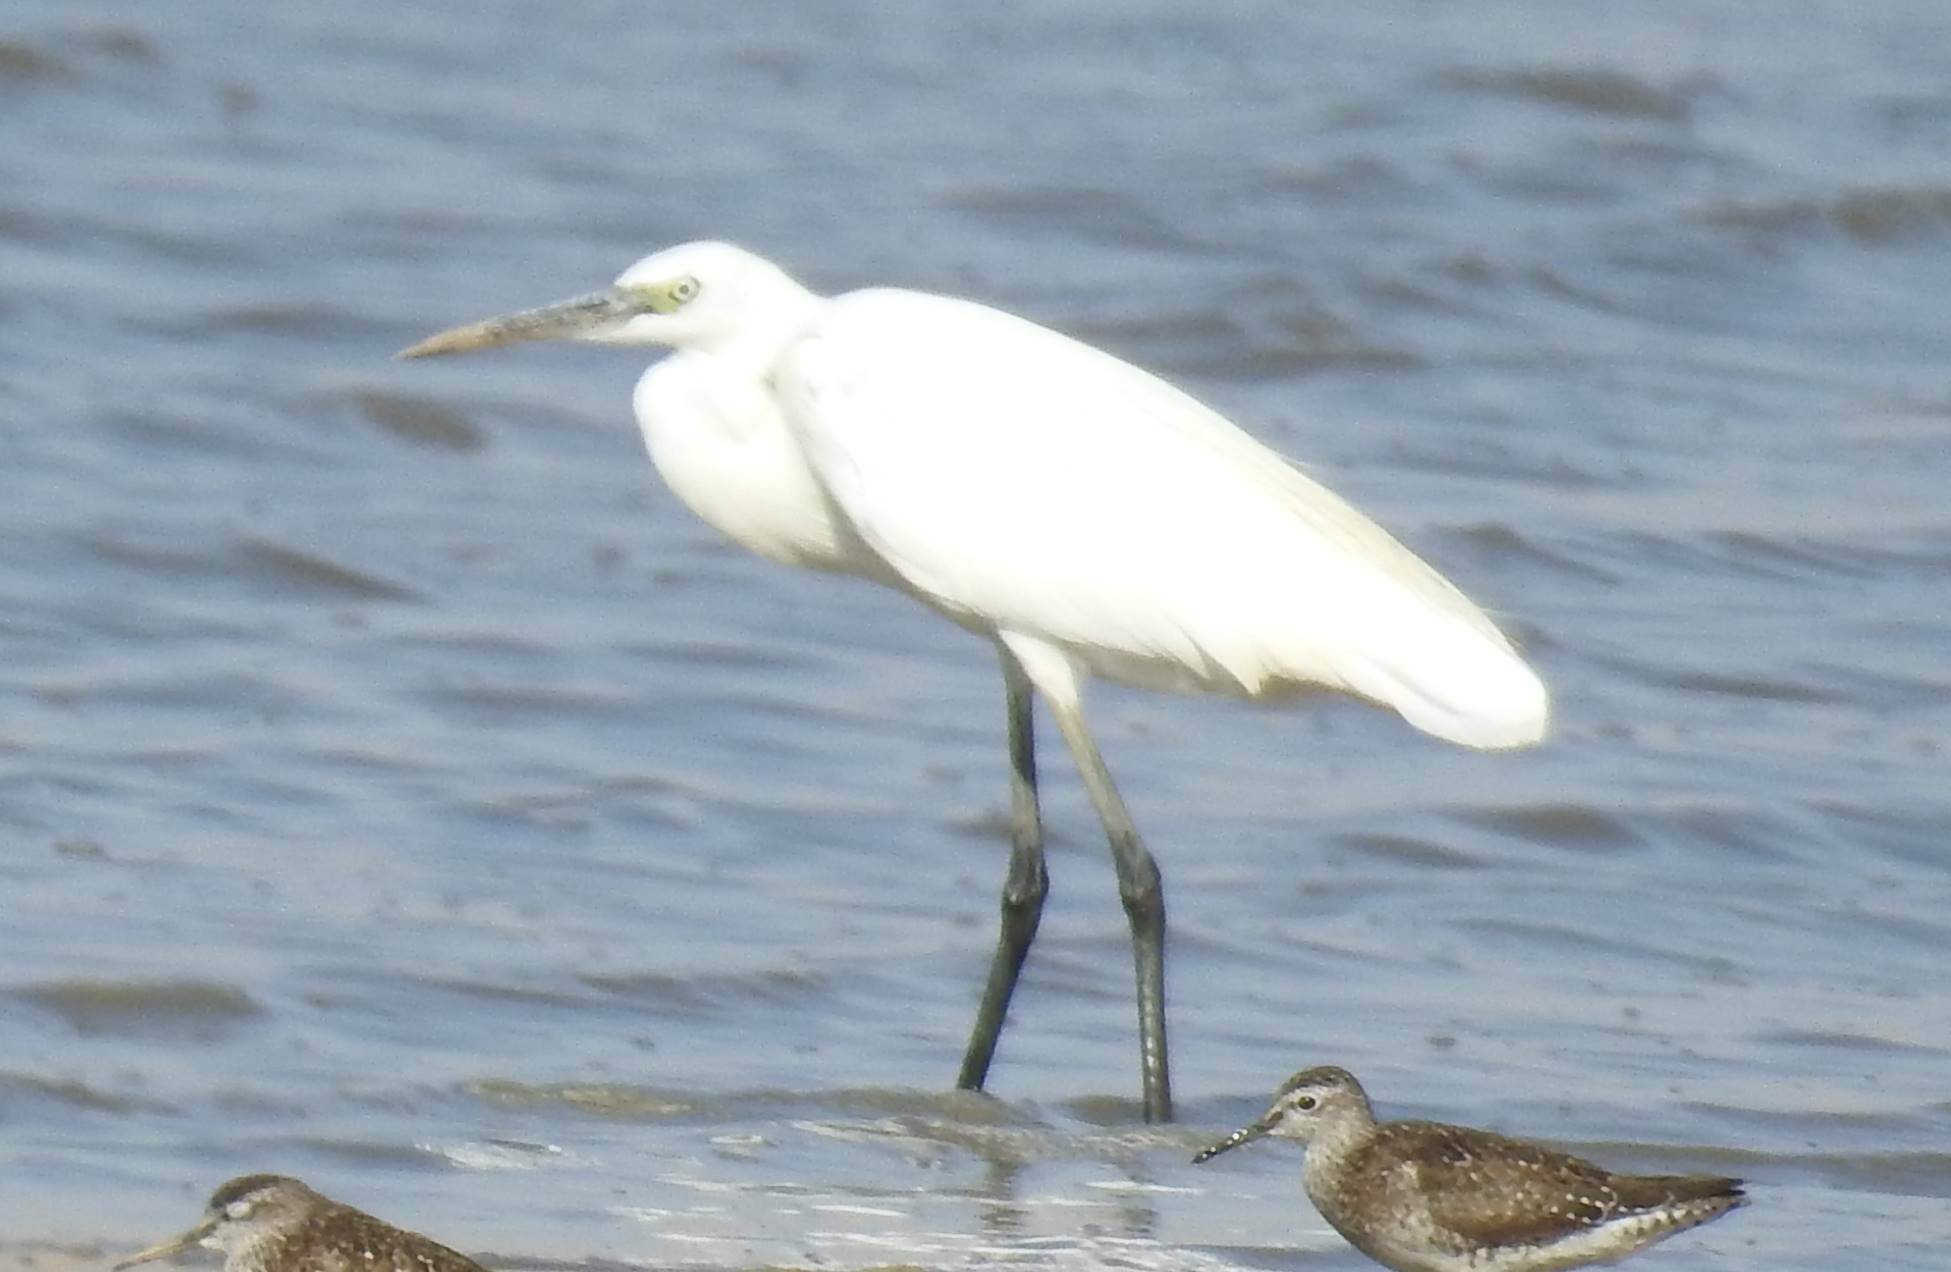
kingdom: Animalia
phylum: Chordata
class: Aves
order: Pelecaniformes
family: Ardeidae
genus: Egretta
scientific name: Egretta garzetta
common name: Little egret
